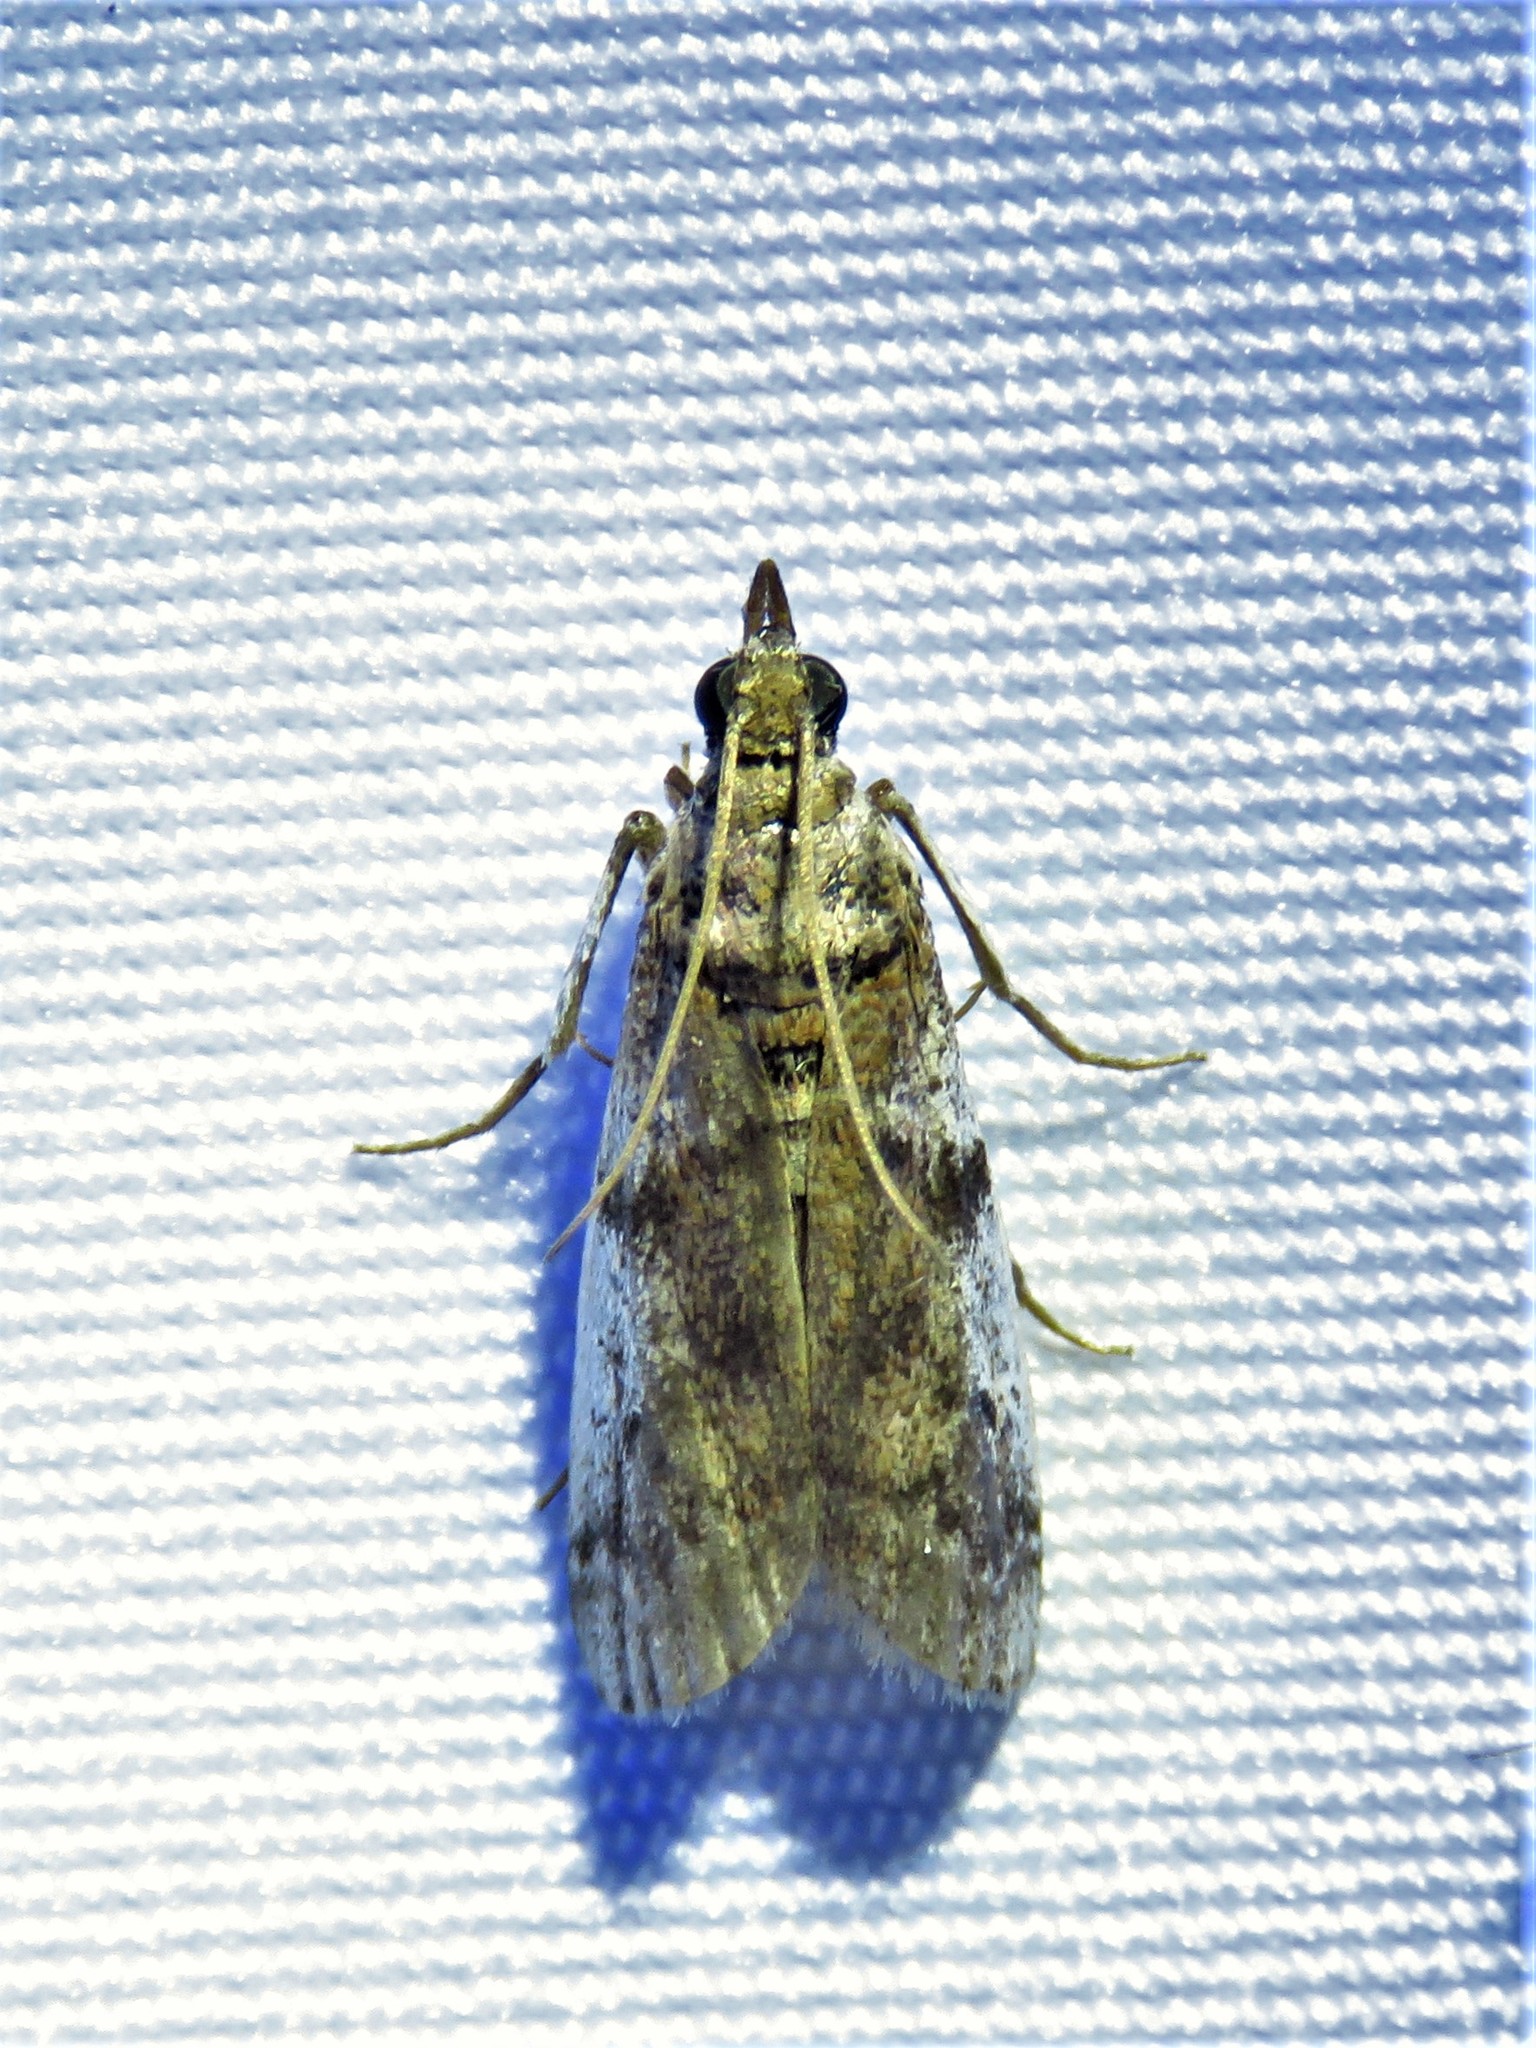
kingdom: Animalia
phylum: Arthropoda
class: Insecta
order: Lepidoptera
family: Pyralidae
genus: Laetilia
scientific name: Laetilia coccidivora
